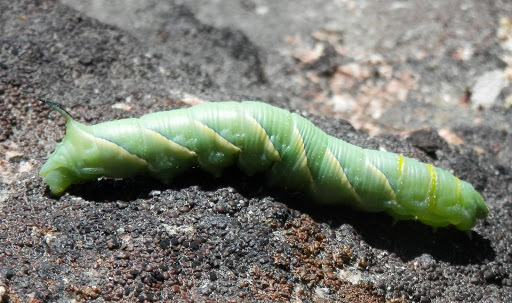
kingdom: Animalia
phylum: Arthropoda
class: Insecta
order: Lepidoptera
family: Sphingidae
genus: Sphinx
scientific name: Sphinx vashti
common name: Snowberry sphinx
